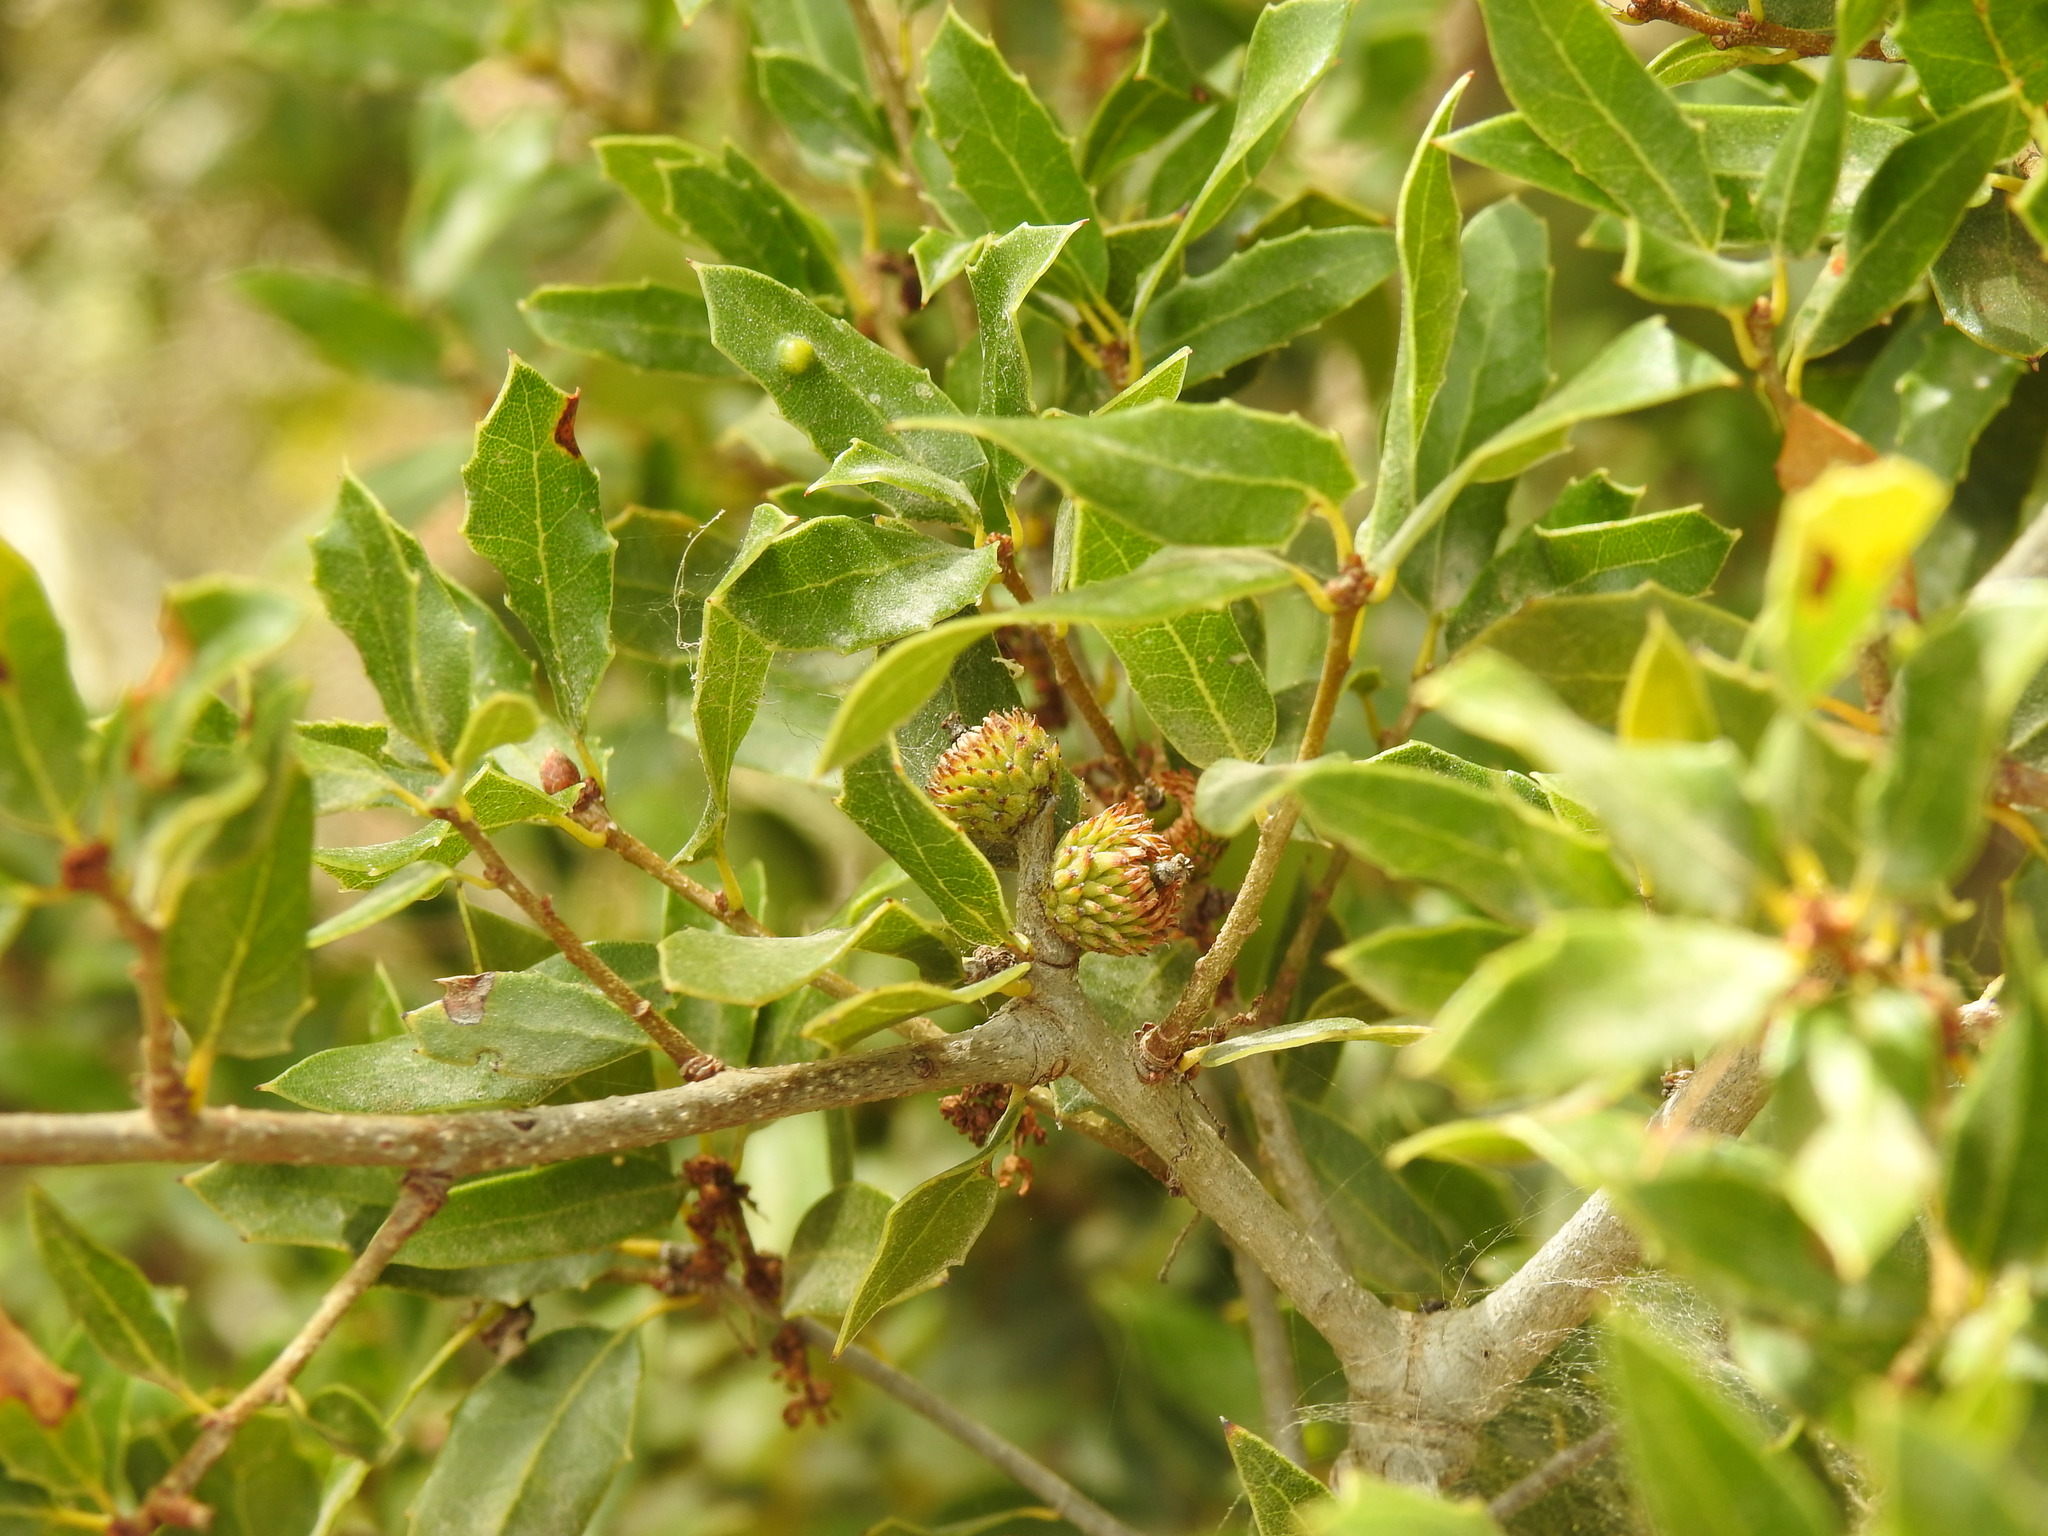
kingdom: Plantae
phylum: Tracheophyta
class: Magnoliopsida
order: Fagales
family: Fagaceae
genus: Quercus
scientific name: Quercus coccifera
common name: Kermes oak
